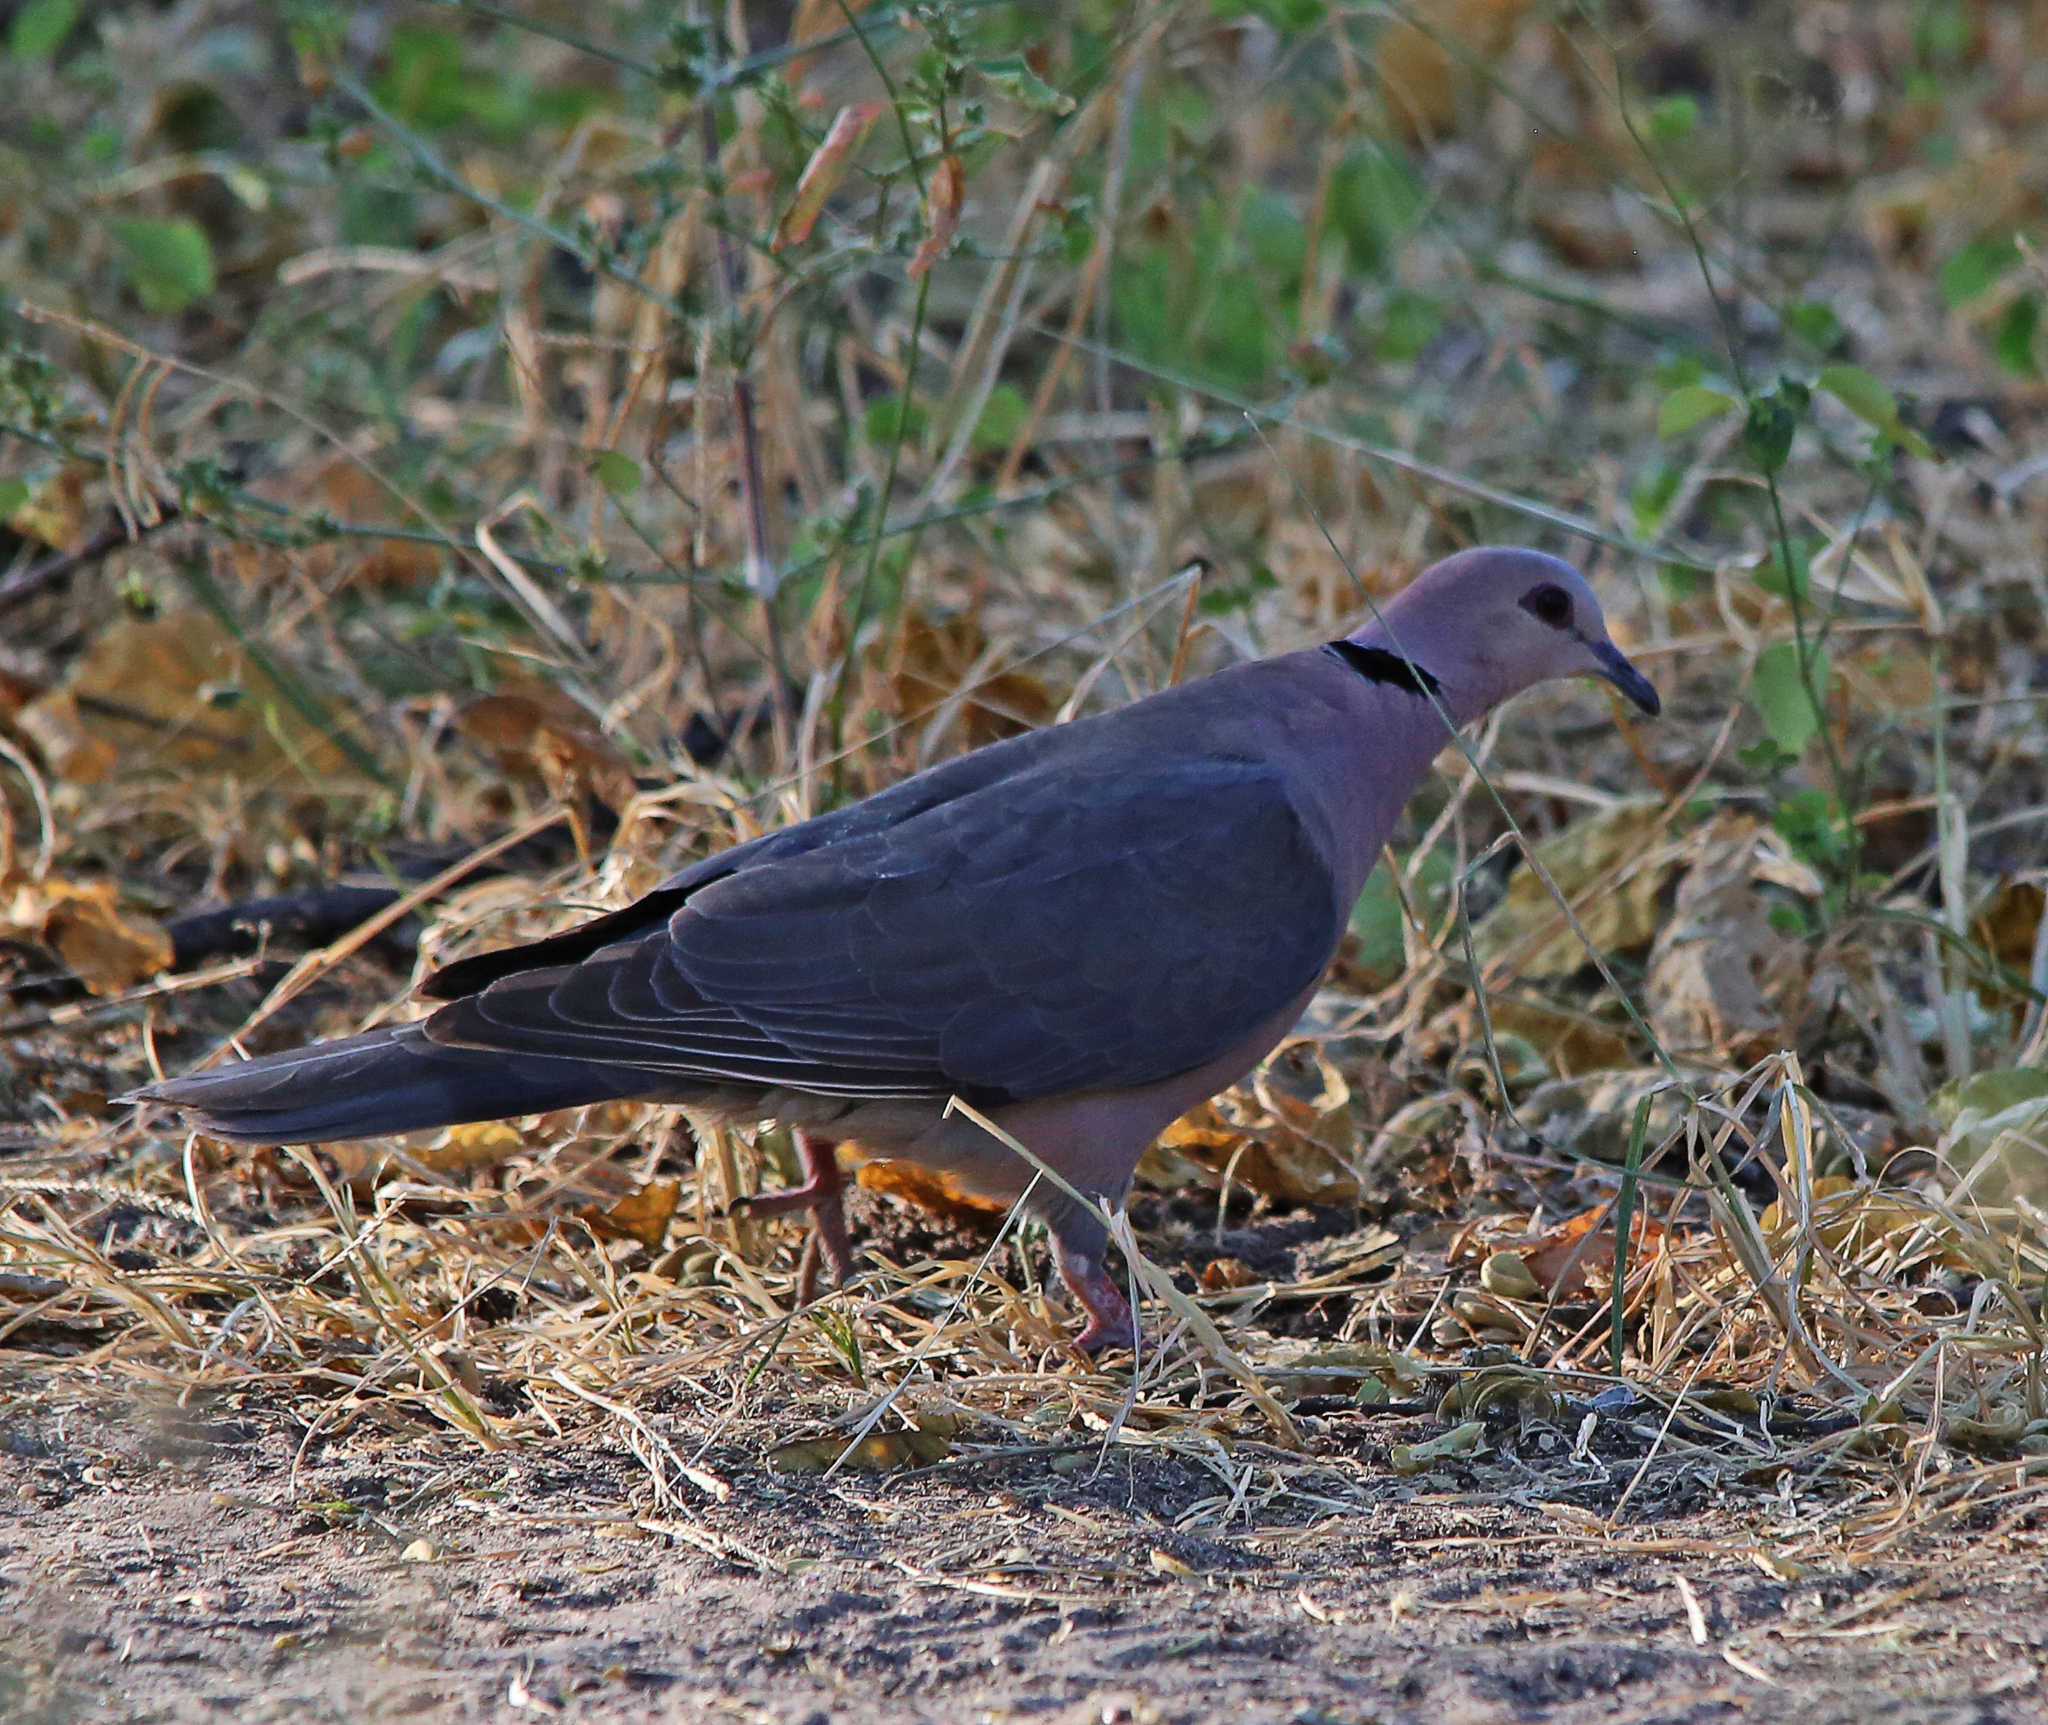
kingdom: Animalia
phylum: Chordata
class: Aves
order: Columbiformes
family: Columbidae
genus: Streptopelia
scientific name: Streptopelia semitorquata
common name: Red-eyed dove
